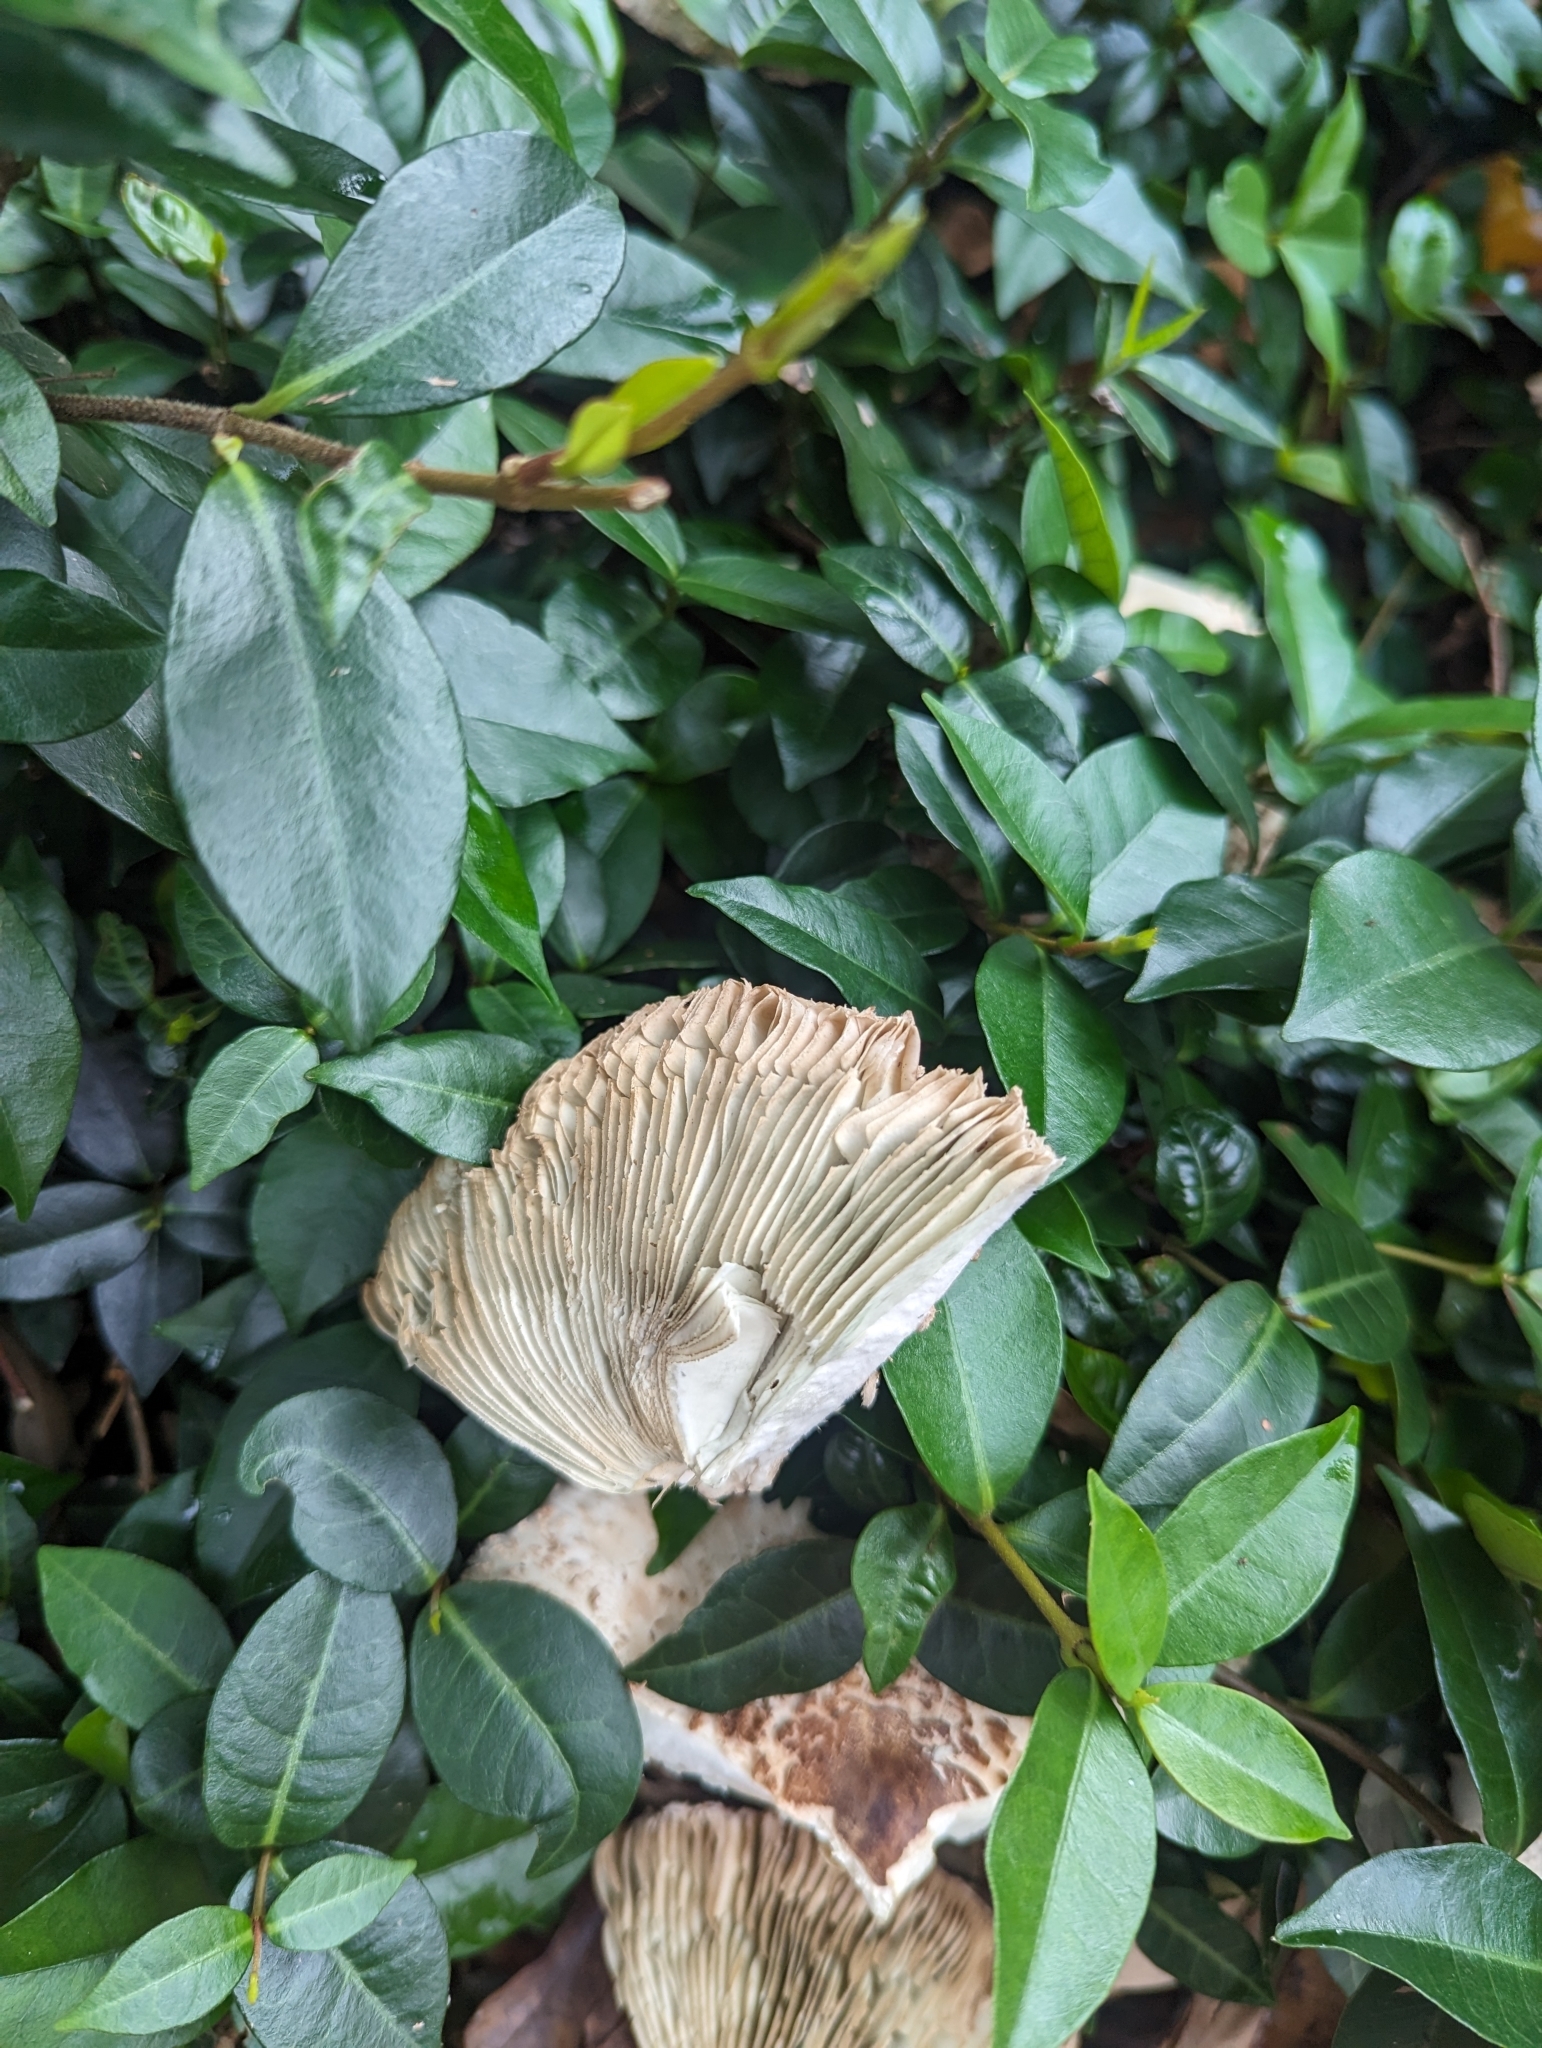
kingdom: Fungi
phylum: Basidiomycota
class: Agaricomycetes
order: Agaricales
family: Agaricaceae
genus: Chlorophyllum
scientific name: Chlorophyllum molybdites
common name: False parasol
